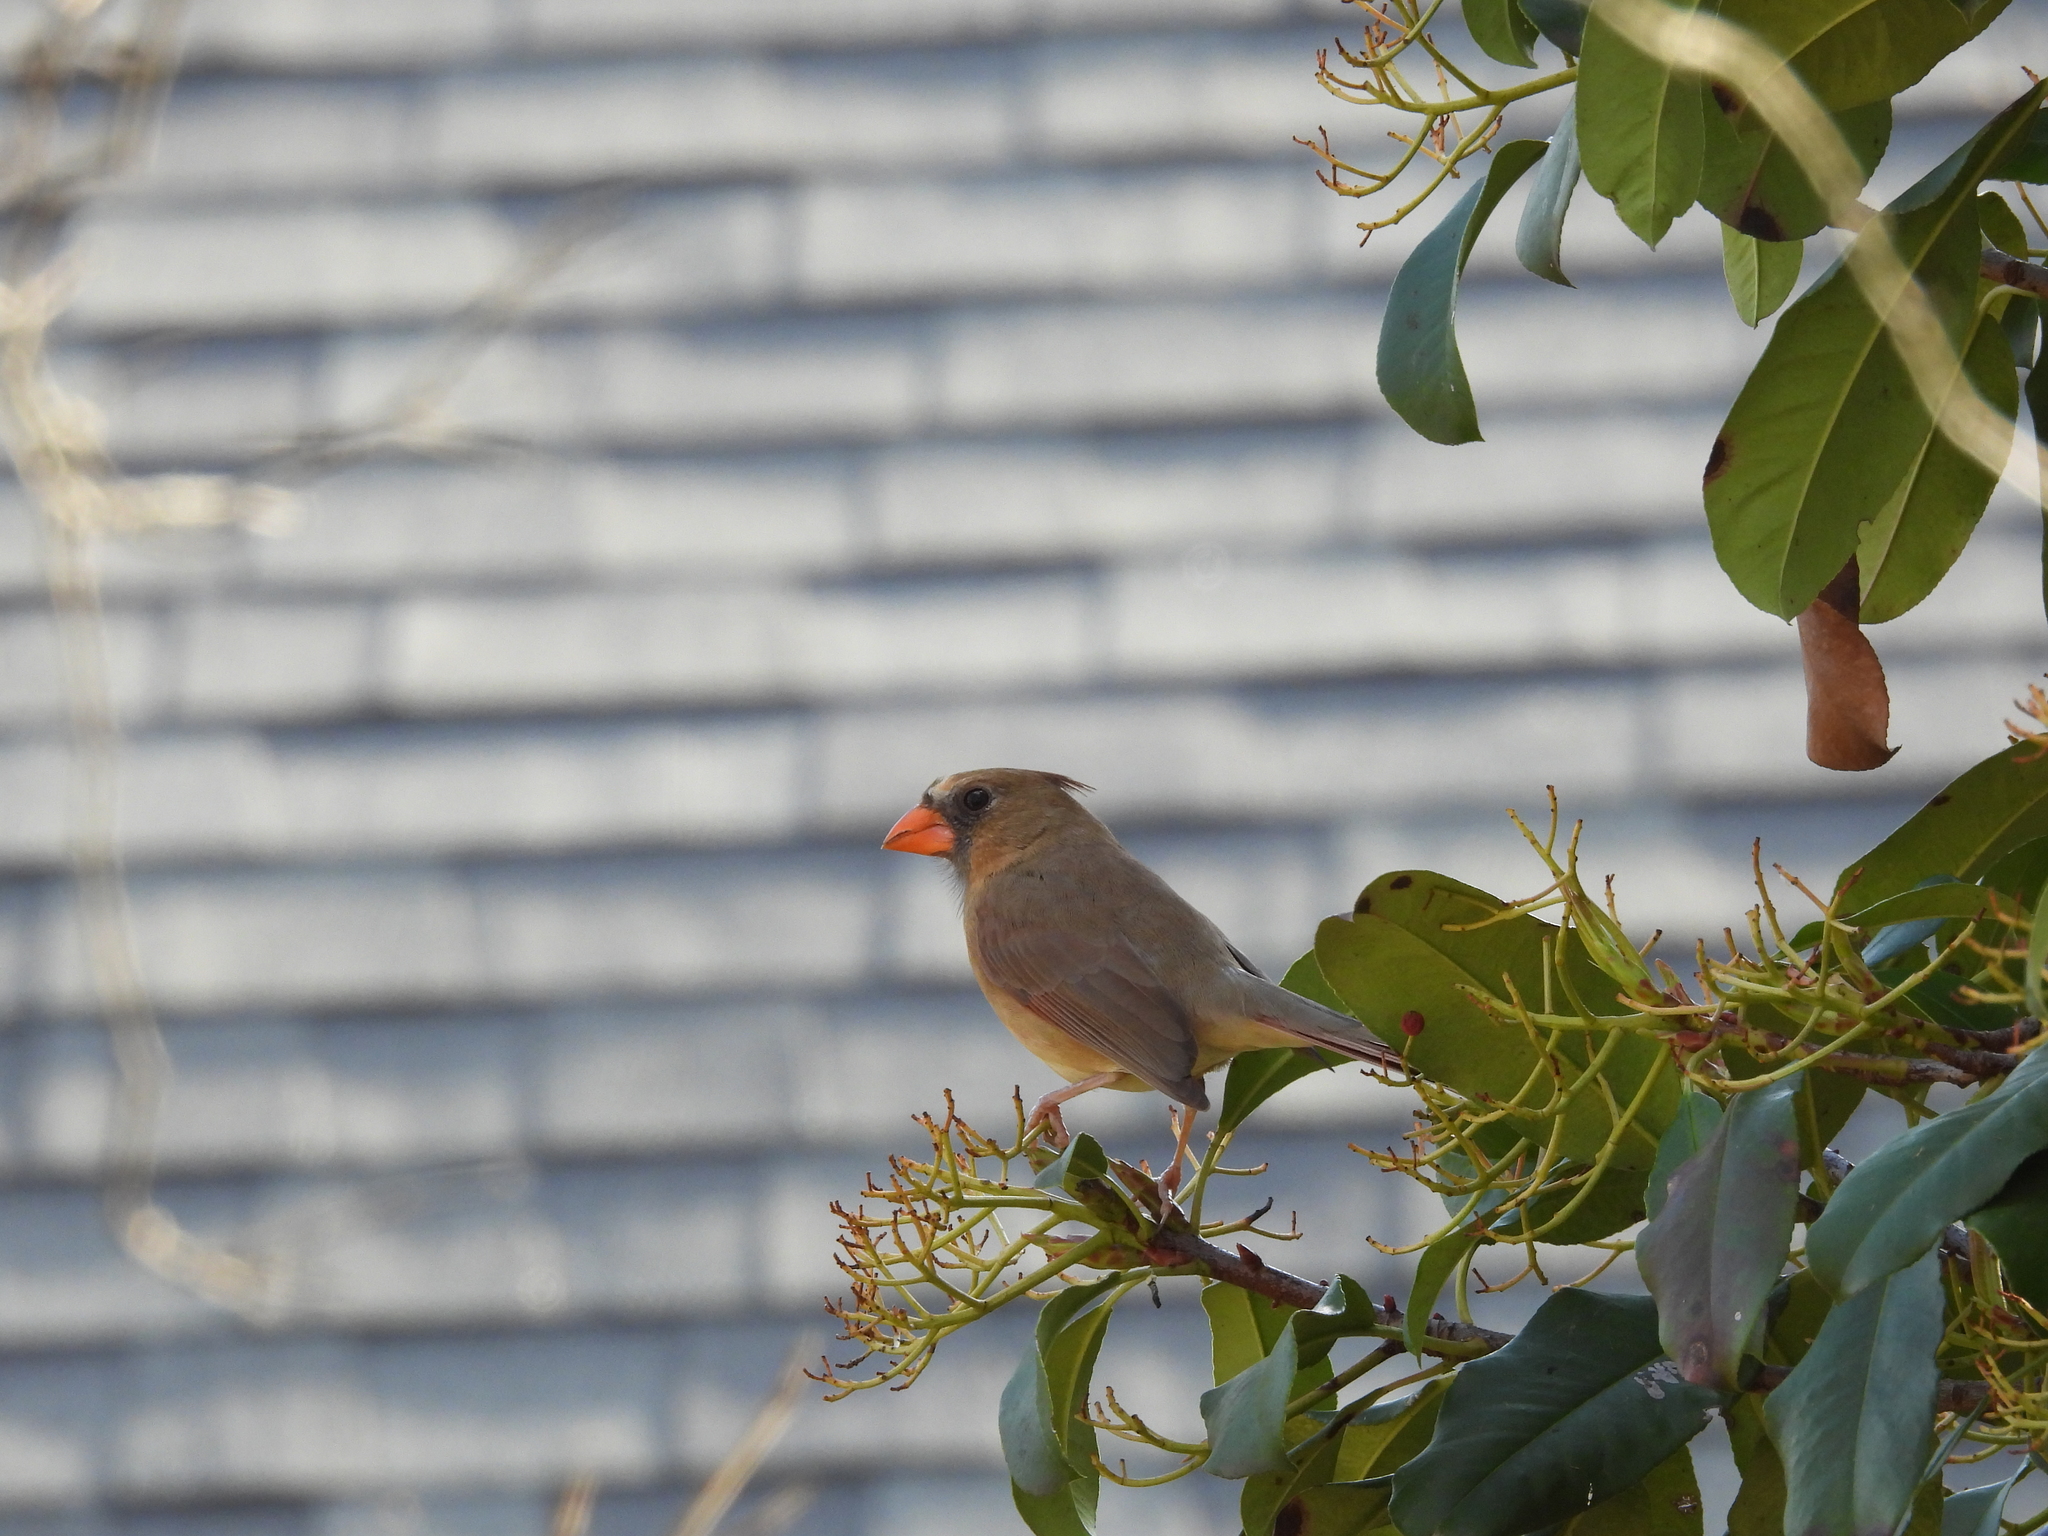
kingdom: Animalia
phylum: Chordata
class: Aves
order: Passeriformes
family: Cardinalidae
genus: Cardinalis
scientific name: Cardinalis cardinalis
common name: Northern cardinal
